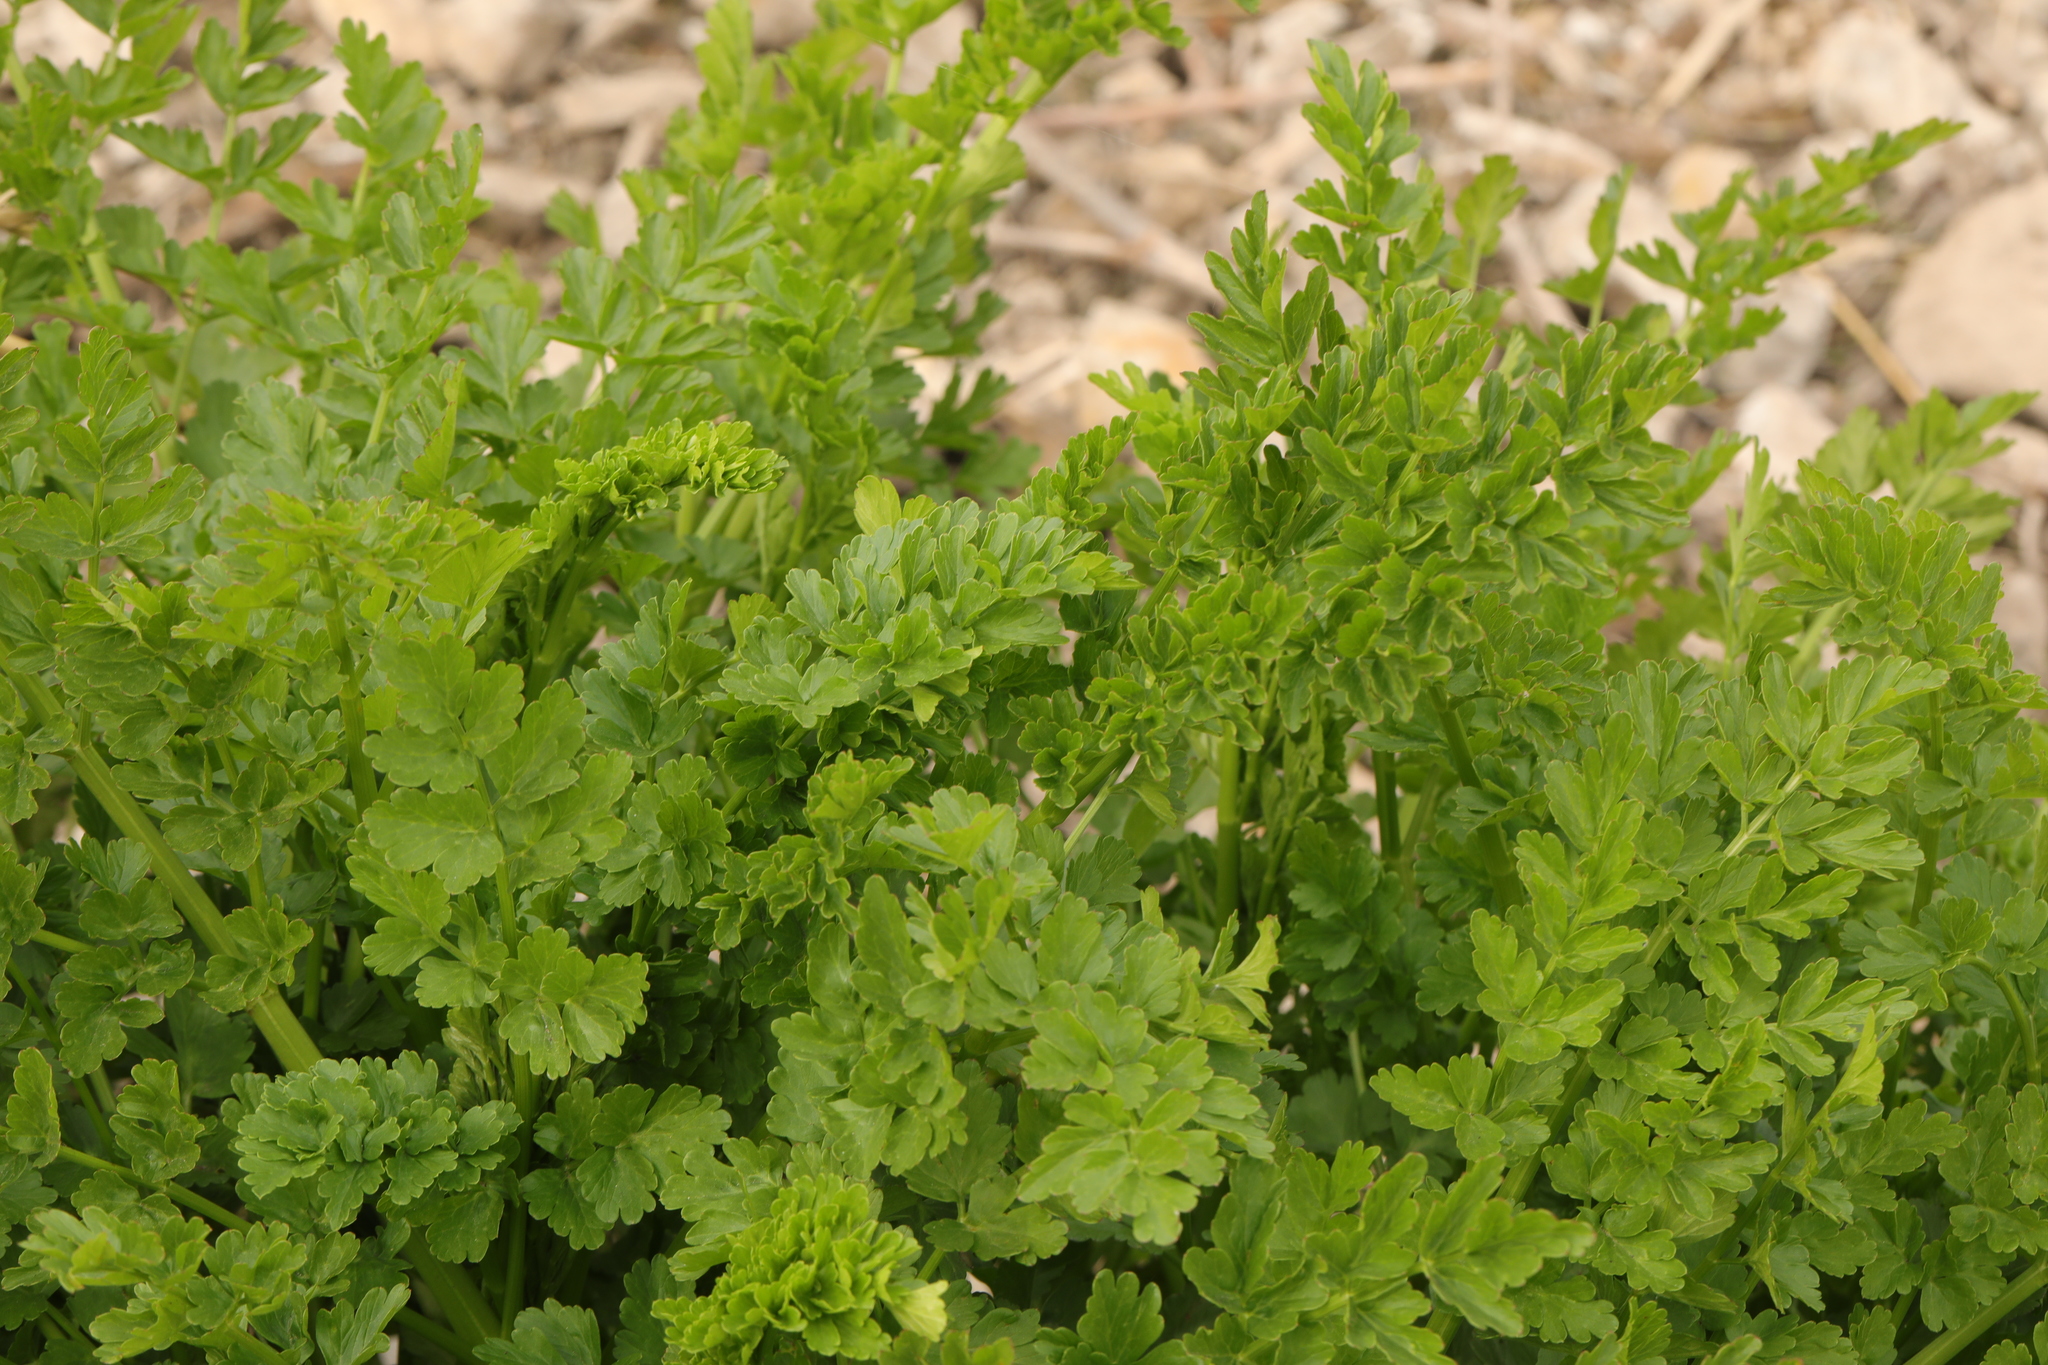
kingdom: Plantae
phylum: Tracheophyta
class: Magnoliopsida
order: Apiales
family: Apiaceae
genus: Oenanthe
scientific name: Oenanthe crocata
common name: Hemlock water-dropwort
